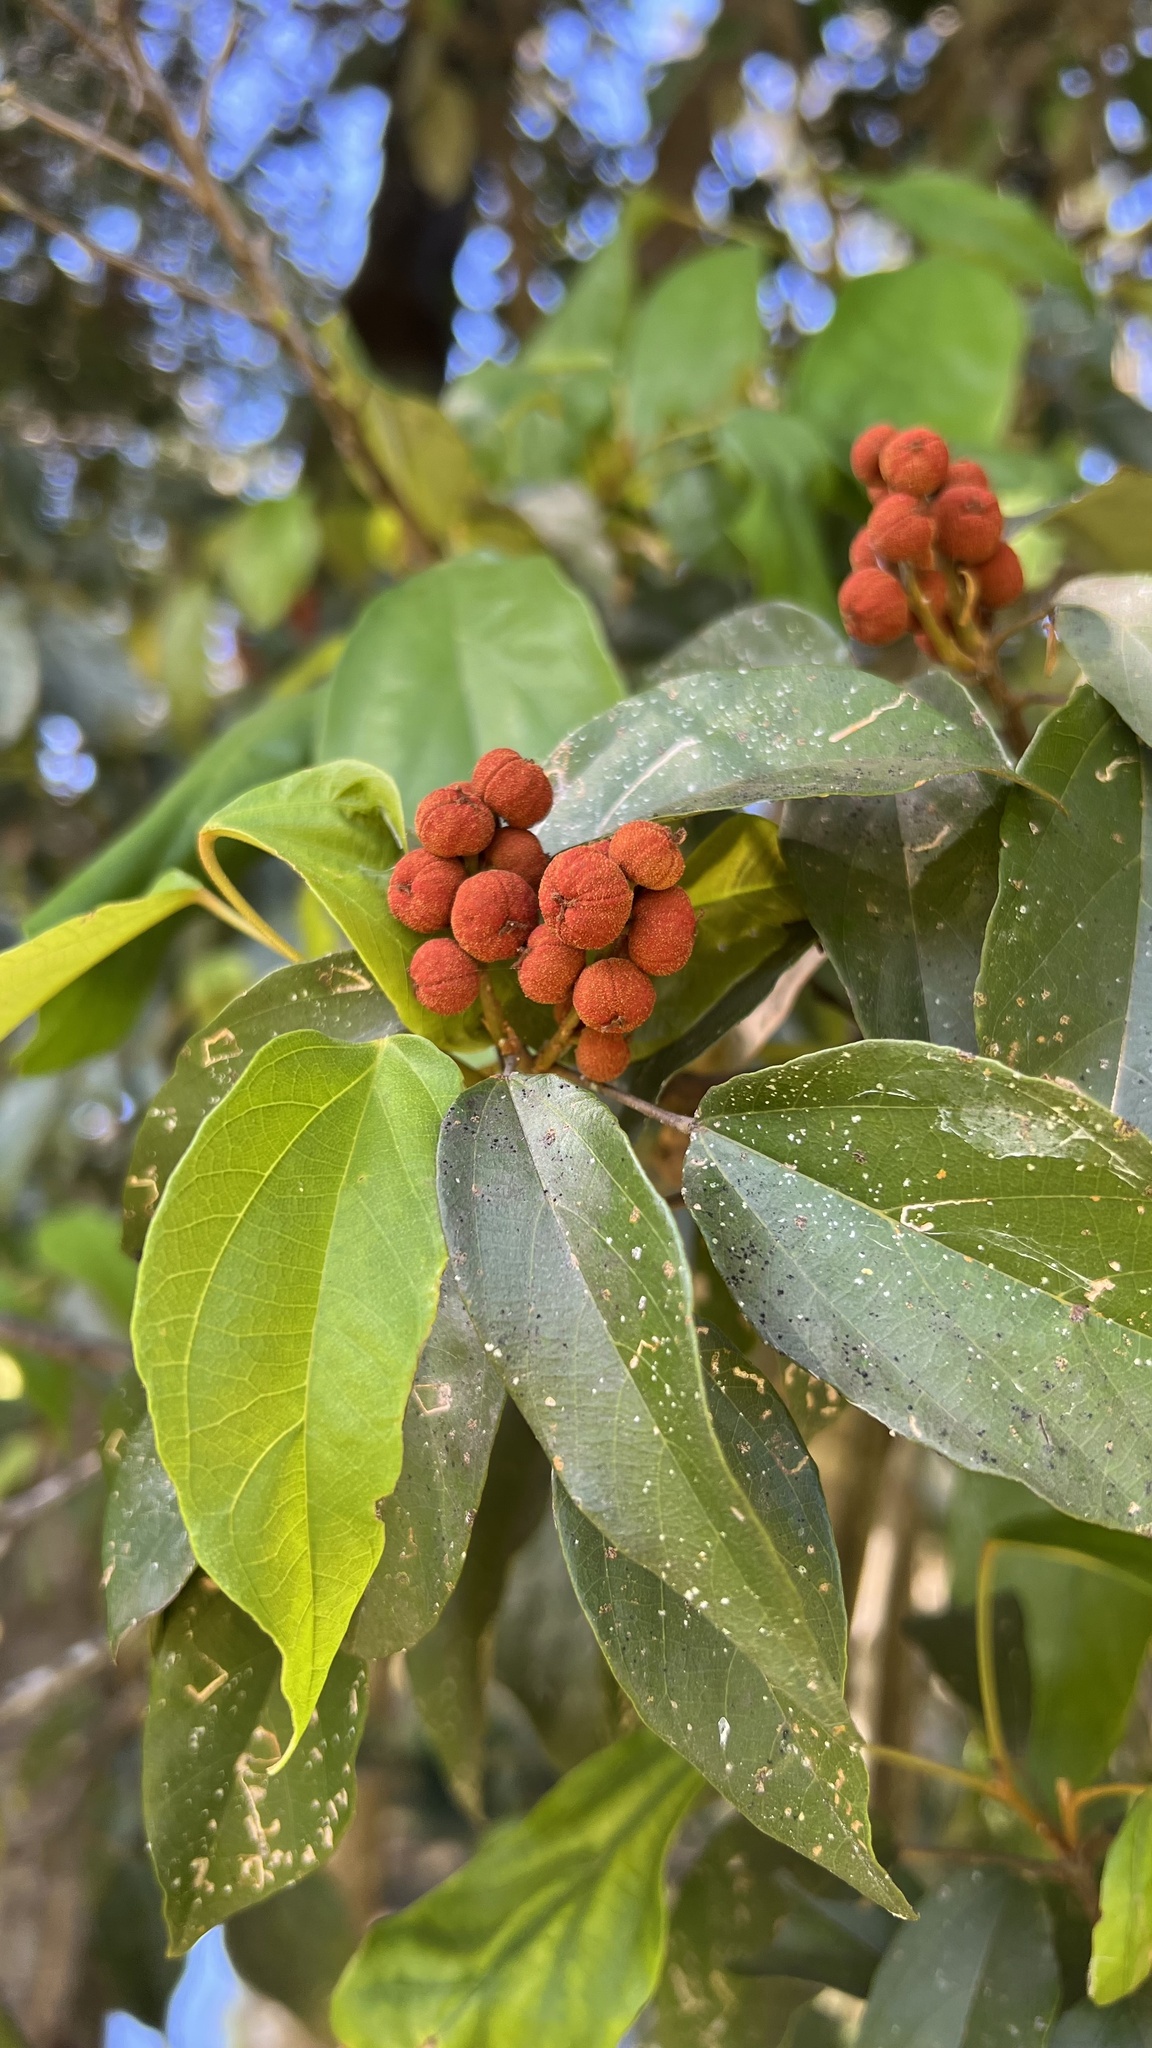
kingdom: Plantae
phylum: Tracheophyta
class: Magnoliopsida
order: Malpighiales
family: Euphorbiaceae
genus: Mallotus
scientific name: Mallotus philippensis
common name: Kamala tree
